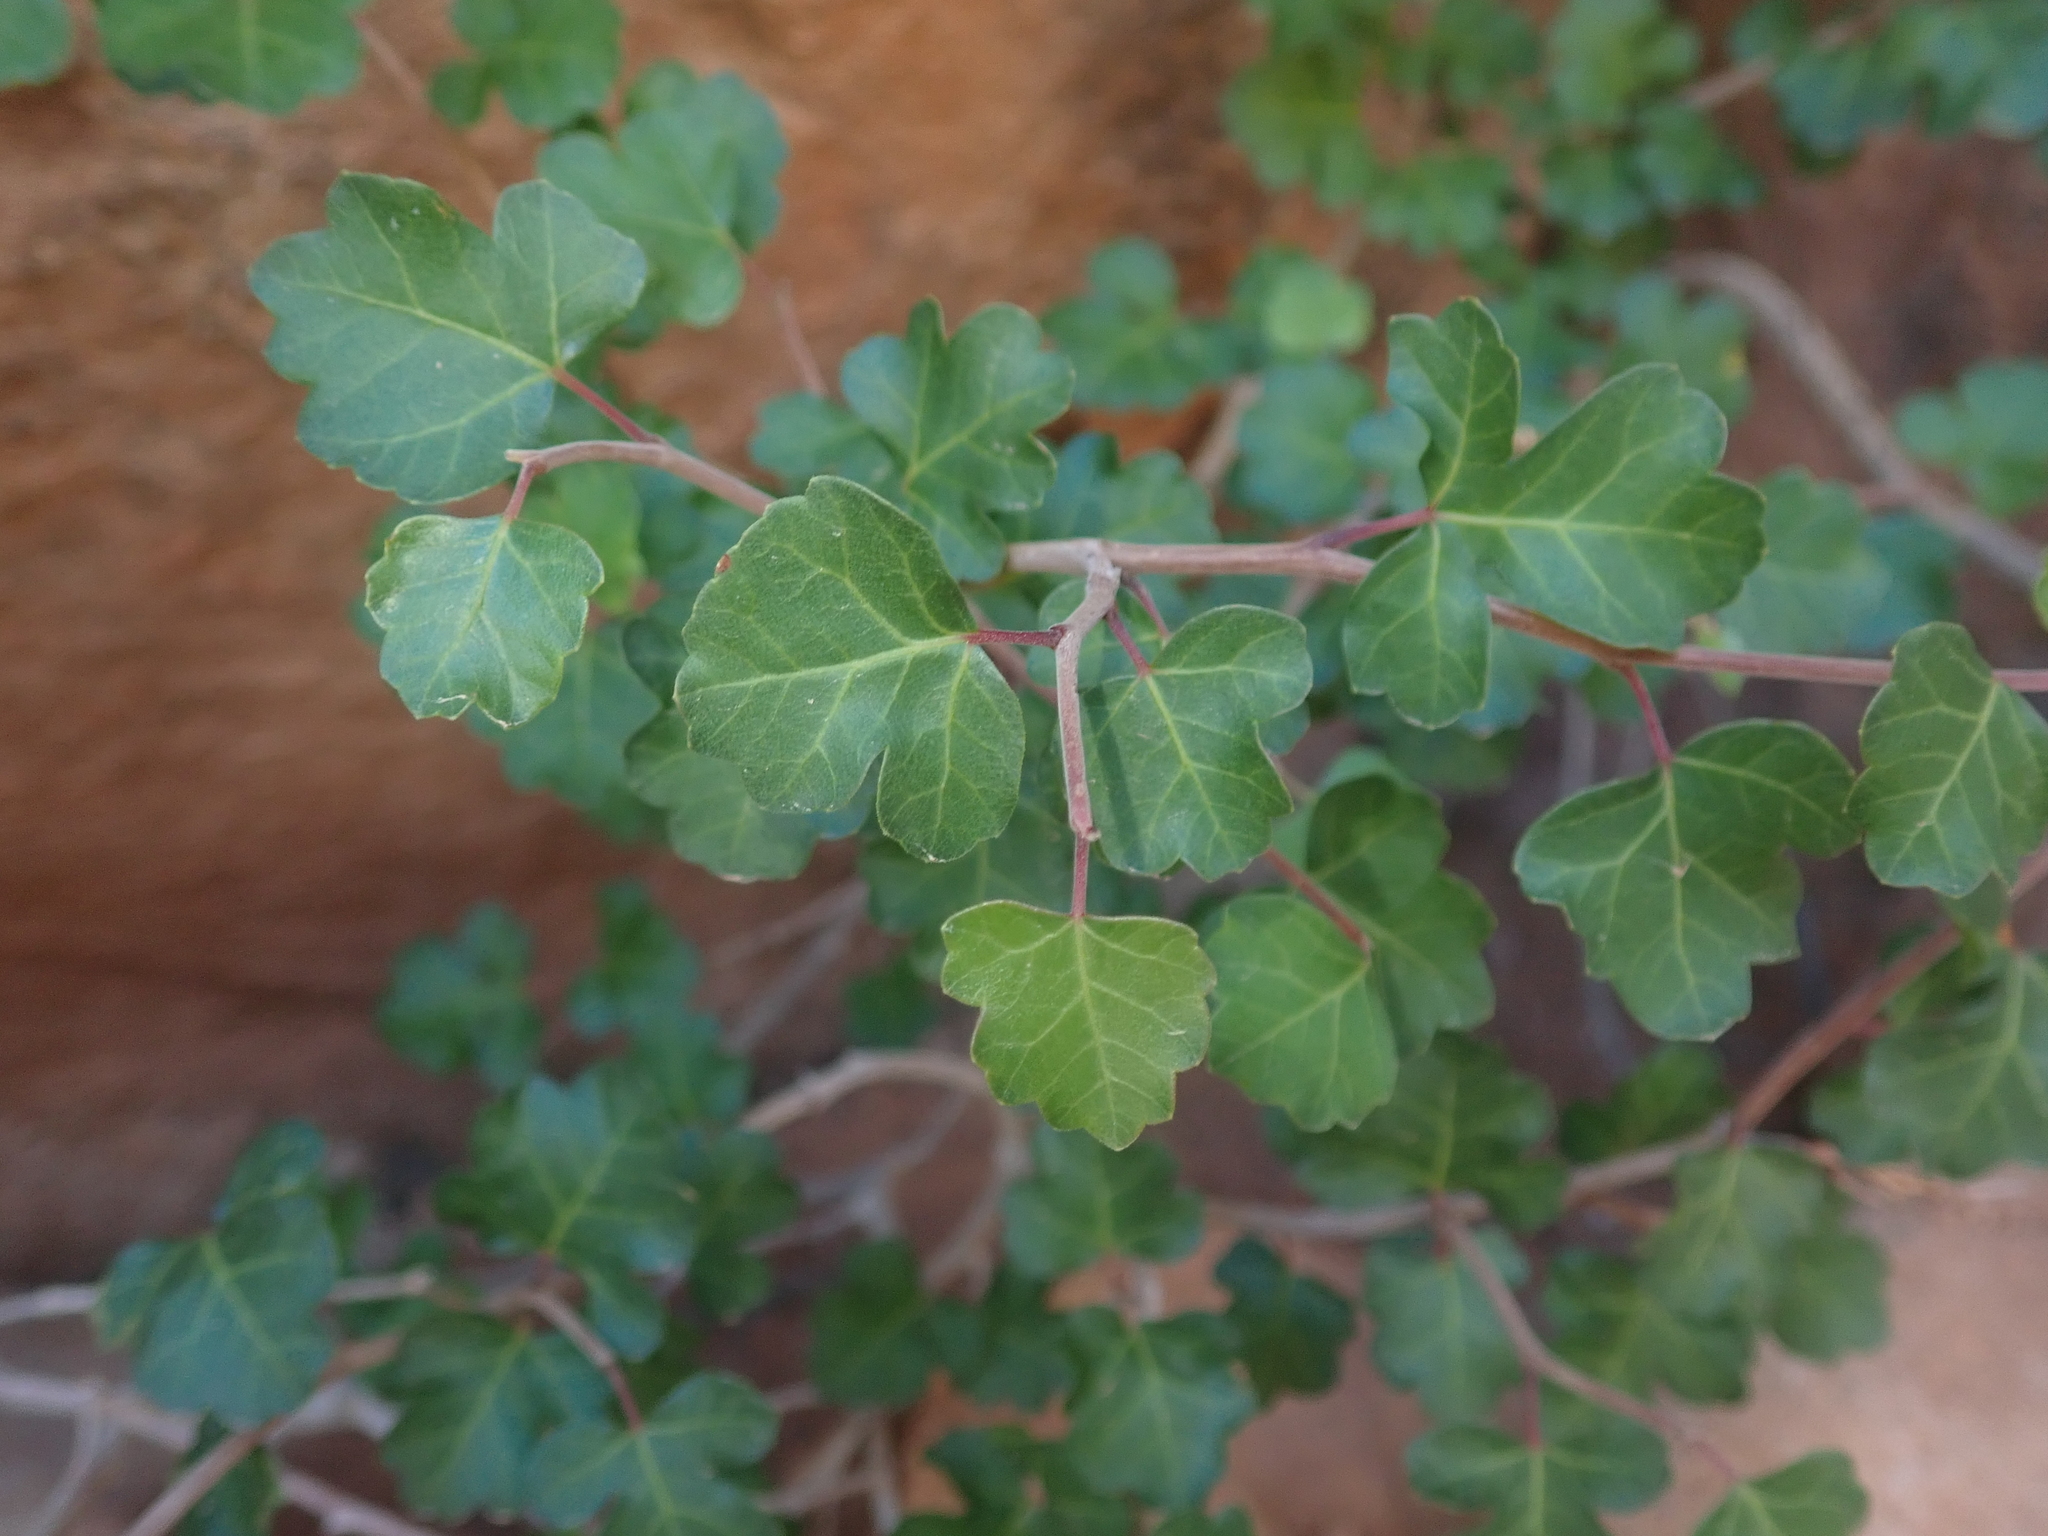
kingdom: Plantae
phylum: Tracheophyta
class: Magnoliopsida
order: Sapindales
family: Anacardiaceae
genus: Rhus
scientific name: Rhus aromatica
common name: Aromatic sumac
